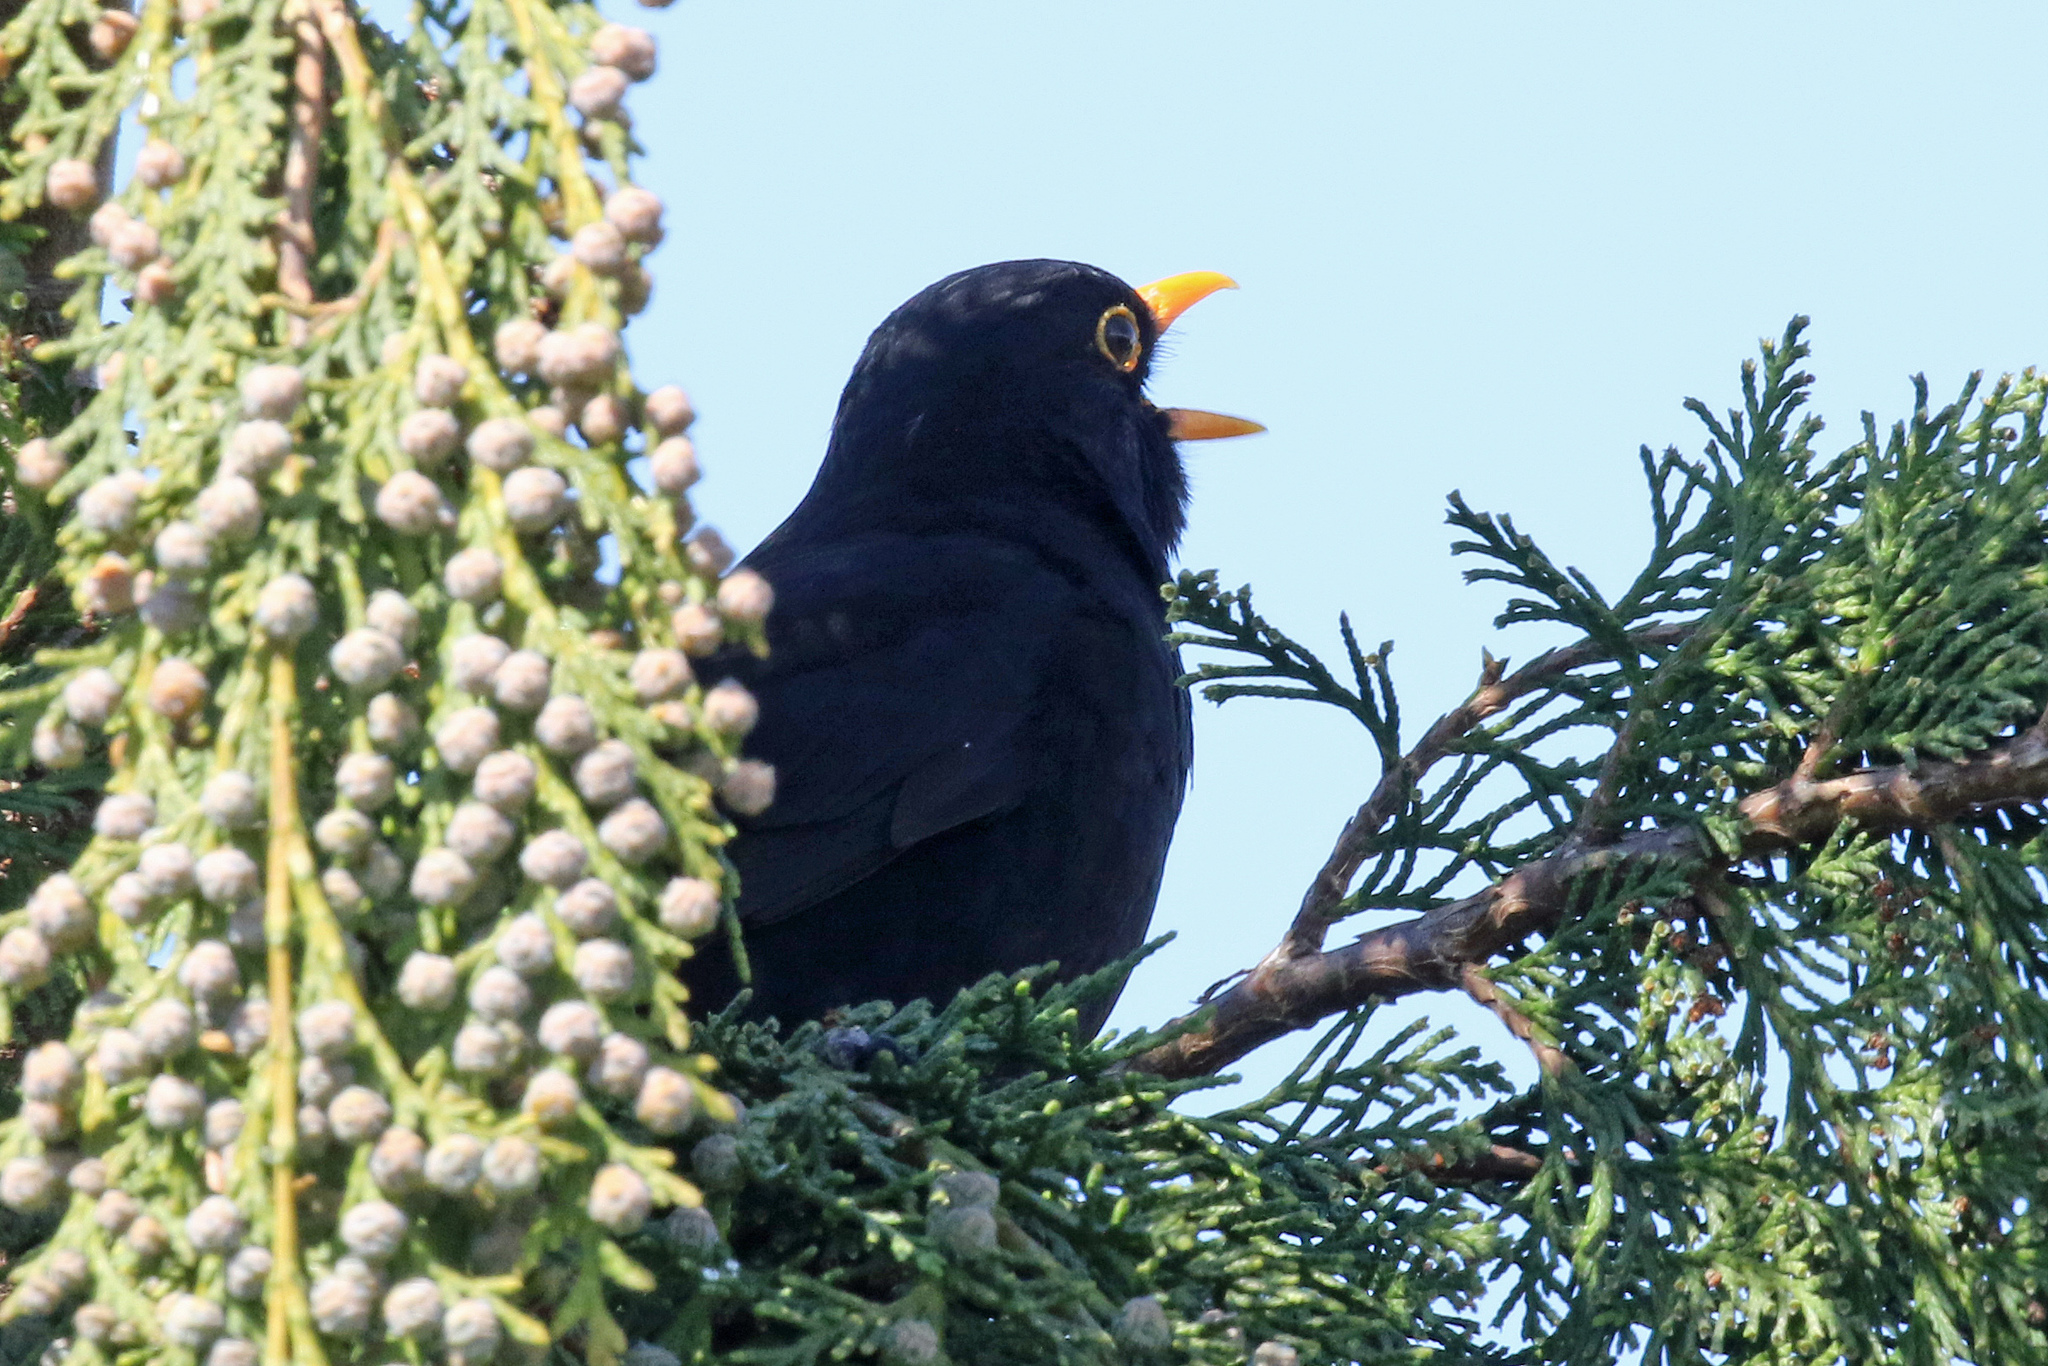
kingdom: Animalia
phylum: Chordata
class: Aves
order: Passeriformes
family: Turdidae
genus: Turdus
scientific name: Turdus merula
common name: Common blackbird
